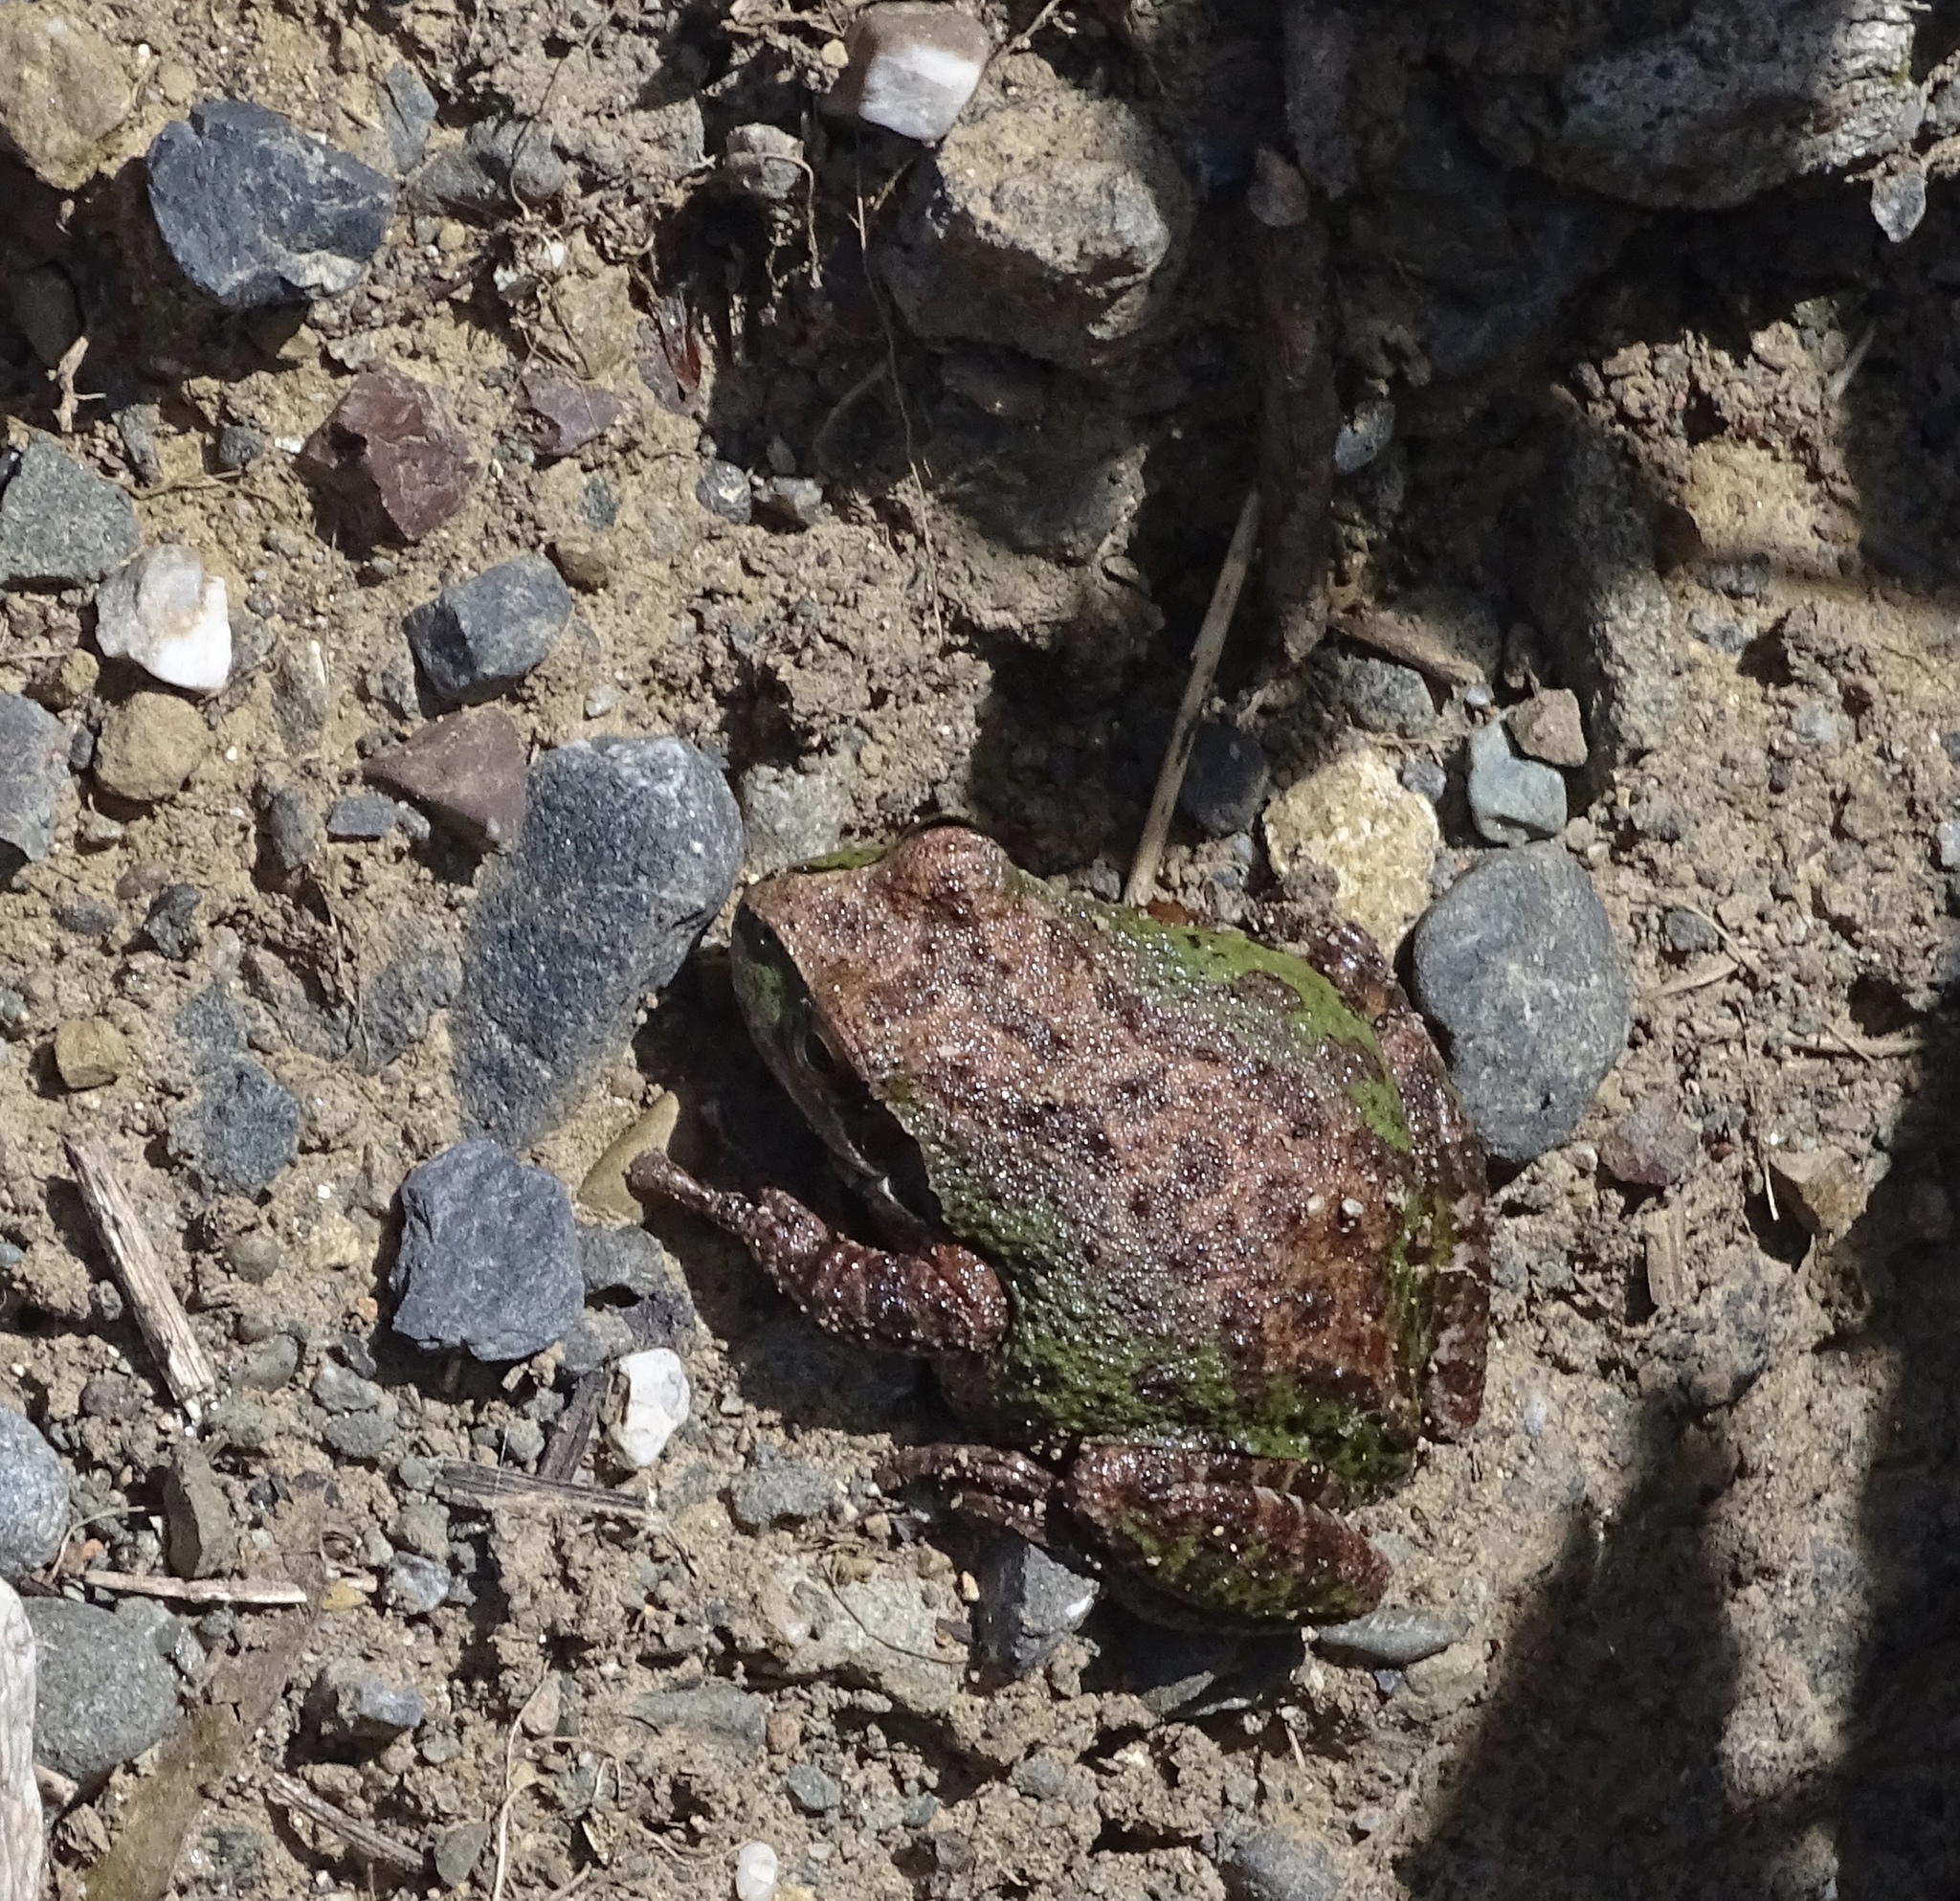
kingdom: Animalia
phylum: Chordata
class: Amphibia
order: Anura
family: Hylidae
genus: Pseudacris
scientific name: Pseudacris regilla
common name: Pacific chorus frog
